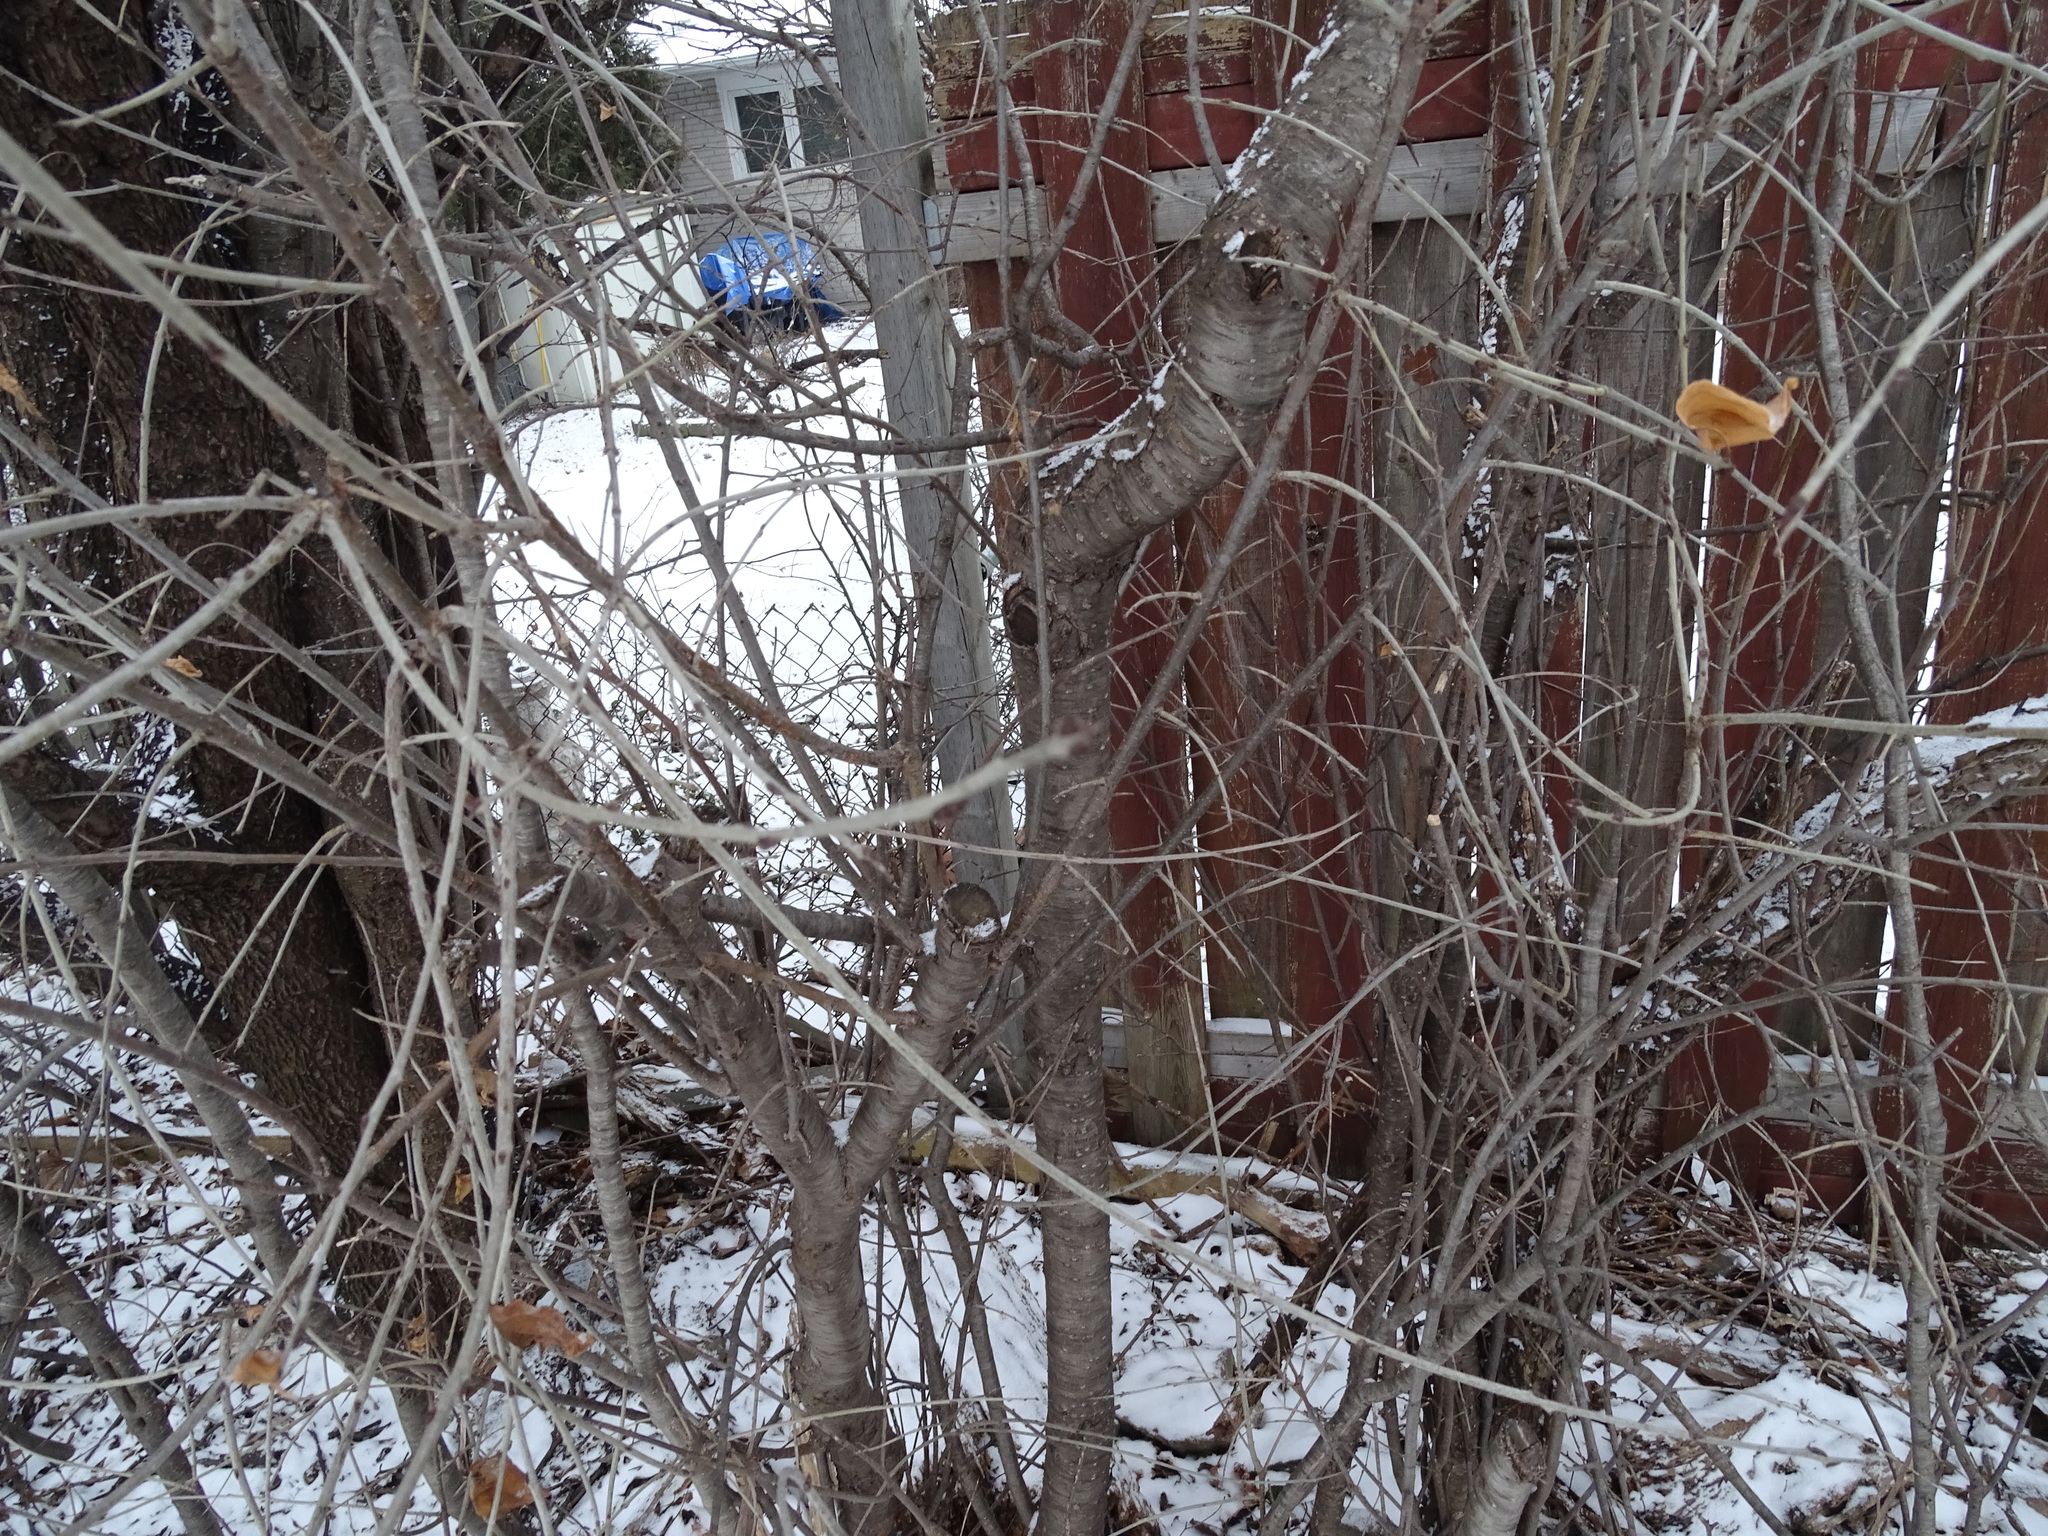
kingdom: Plantae
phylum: Tracheophyta
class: Magnoliopsida
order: Rosales
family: Rhamnaceae
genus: Rhamnus
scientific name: Rhamnus cathartica
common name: Common buckthorn
